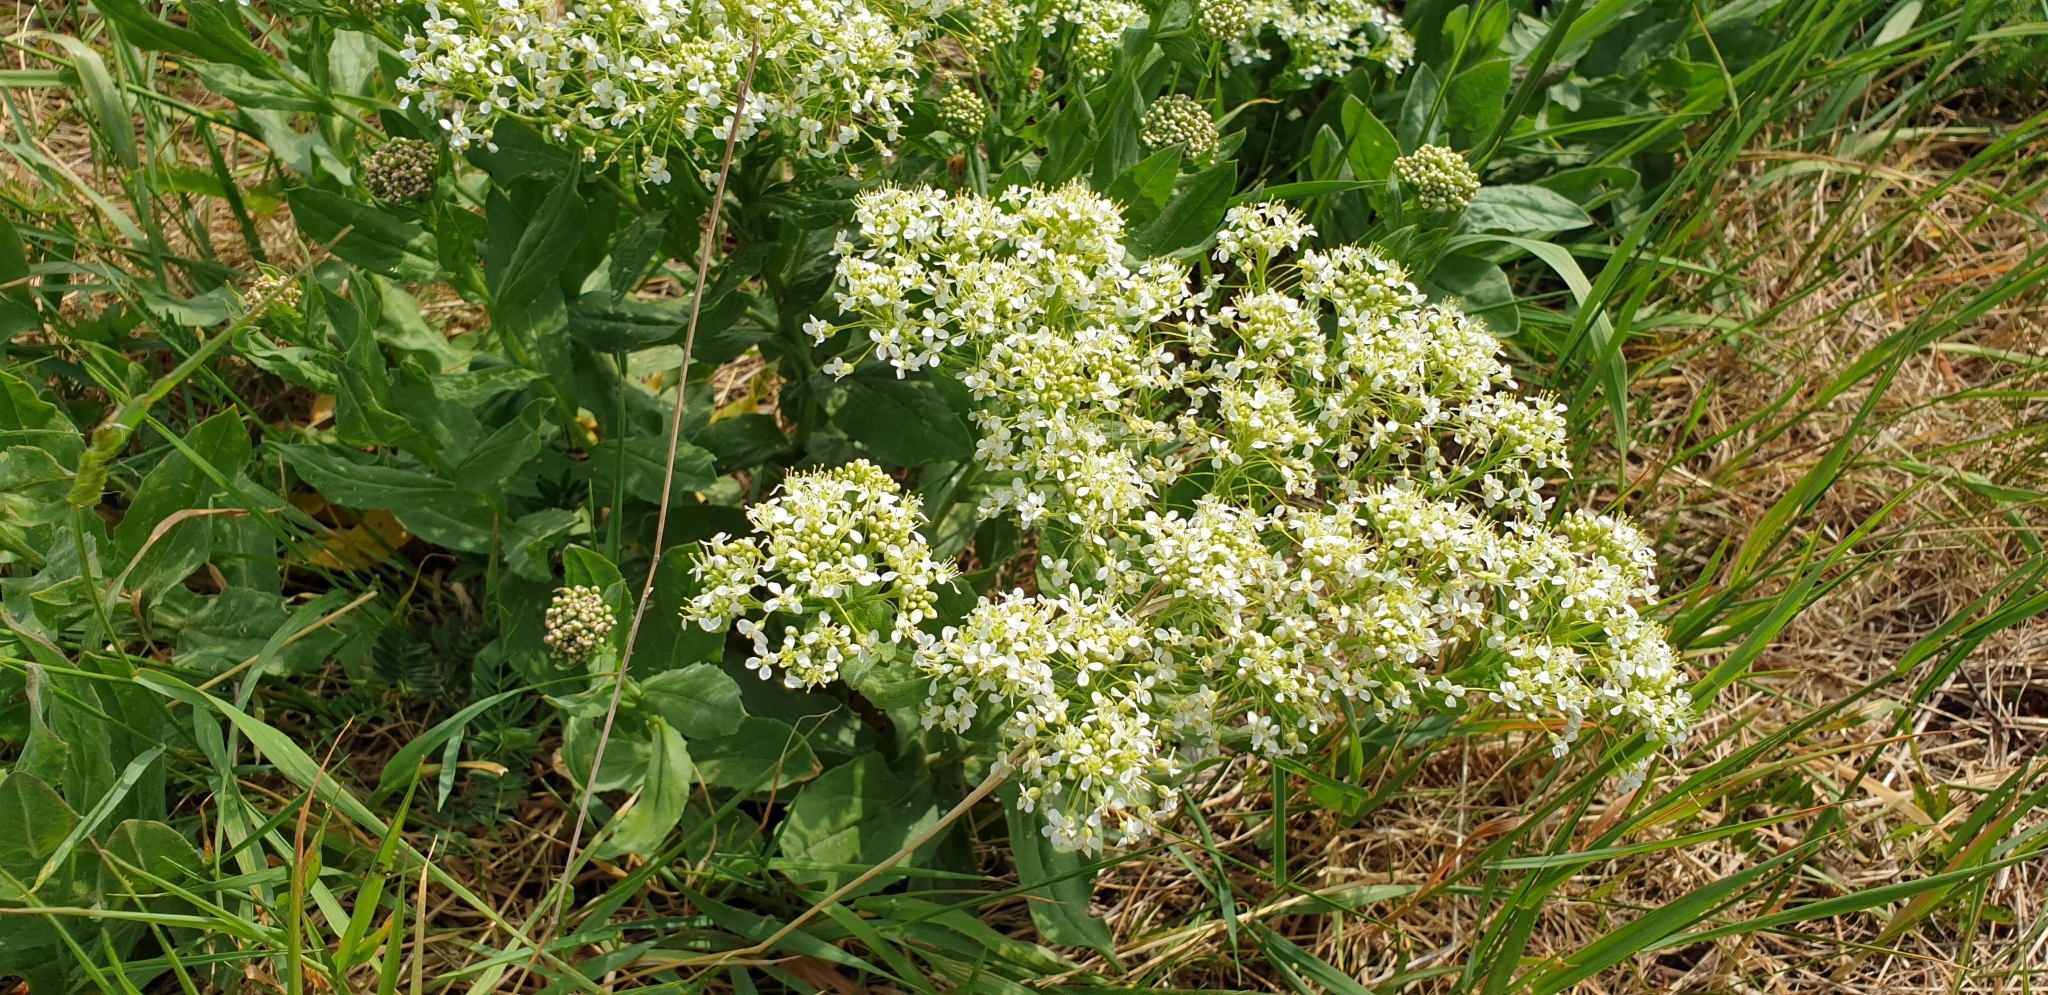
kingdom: Plantae
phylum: Tracheophyta
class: Magnoliopsida
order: Brassicales
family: Brassicaceae
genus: Lepidium
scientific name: Lepidium draba
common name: Hoary cress
